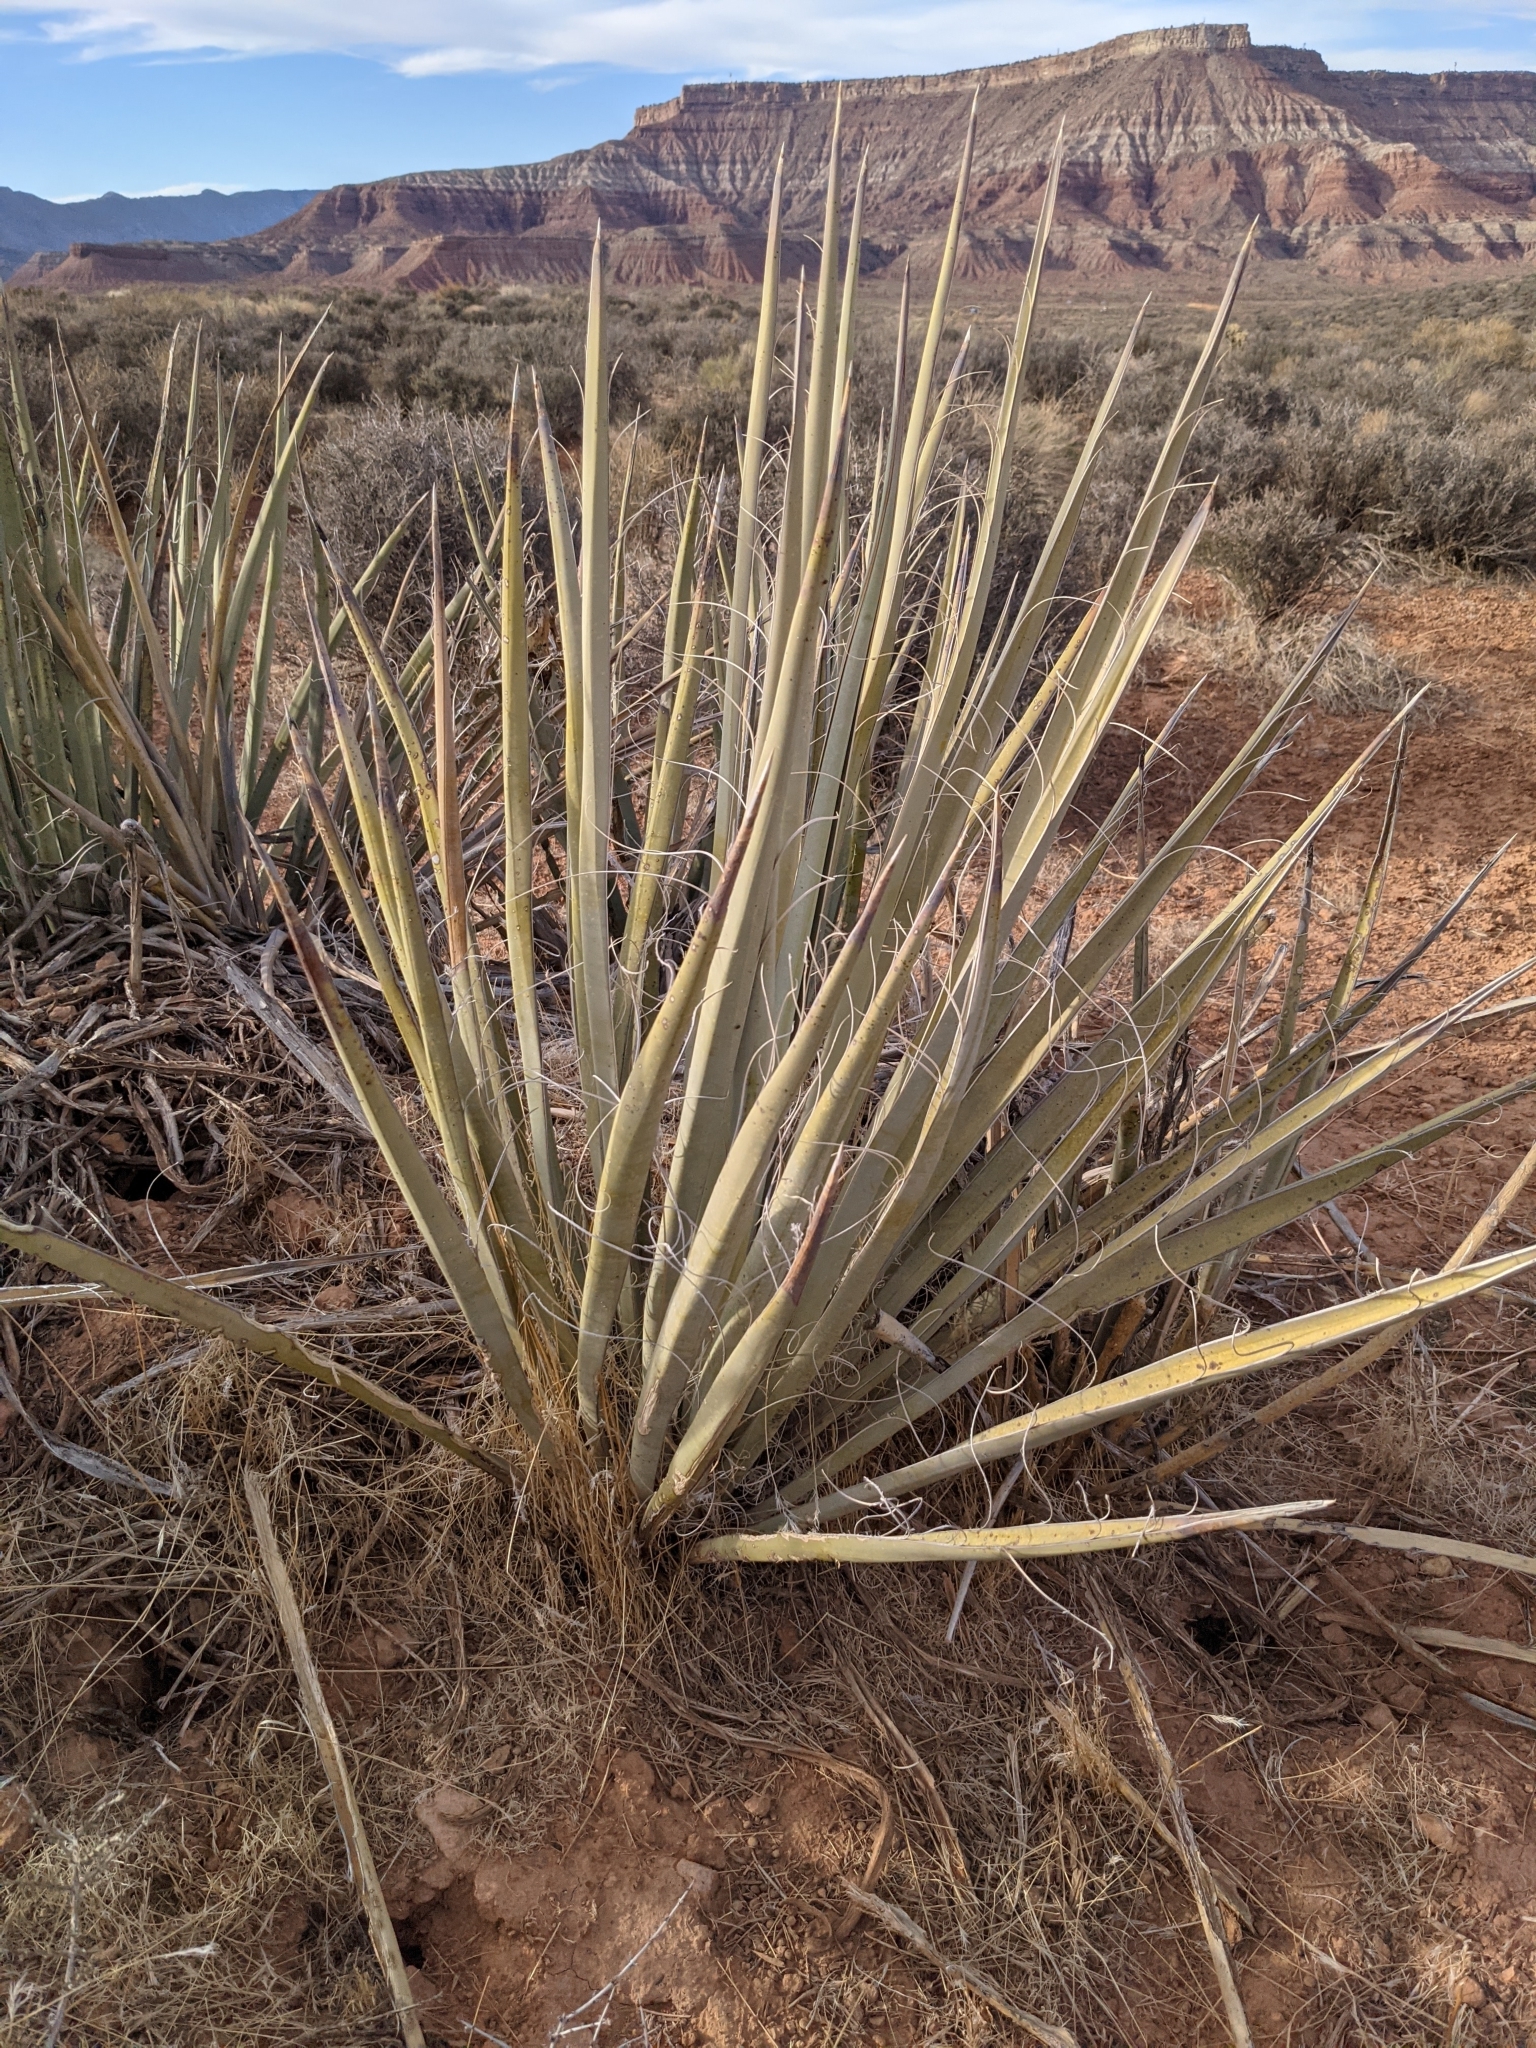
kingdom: Plantae
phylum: Tracheophyta
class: Liliopsida
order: Asparagales
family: Asparagaceae
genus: Yucca
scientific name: Yucca baccata
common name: Banana yucca
